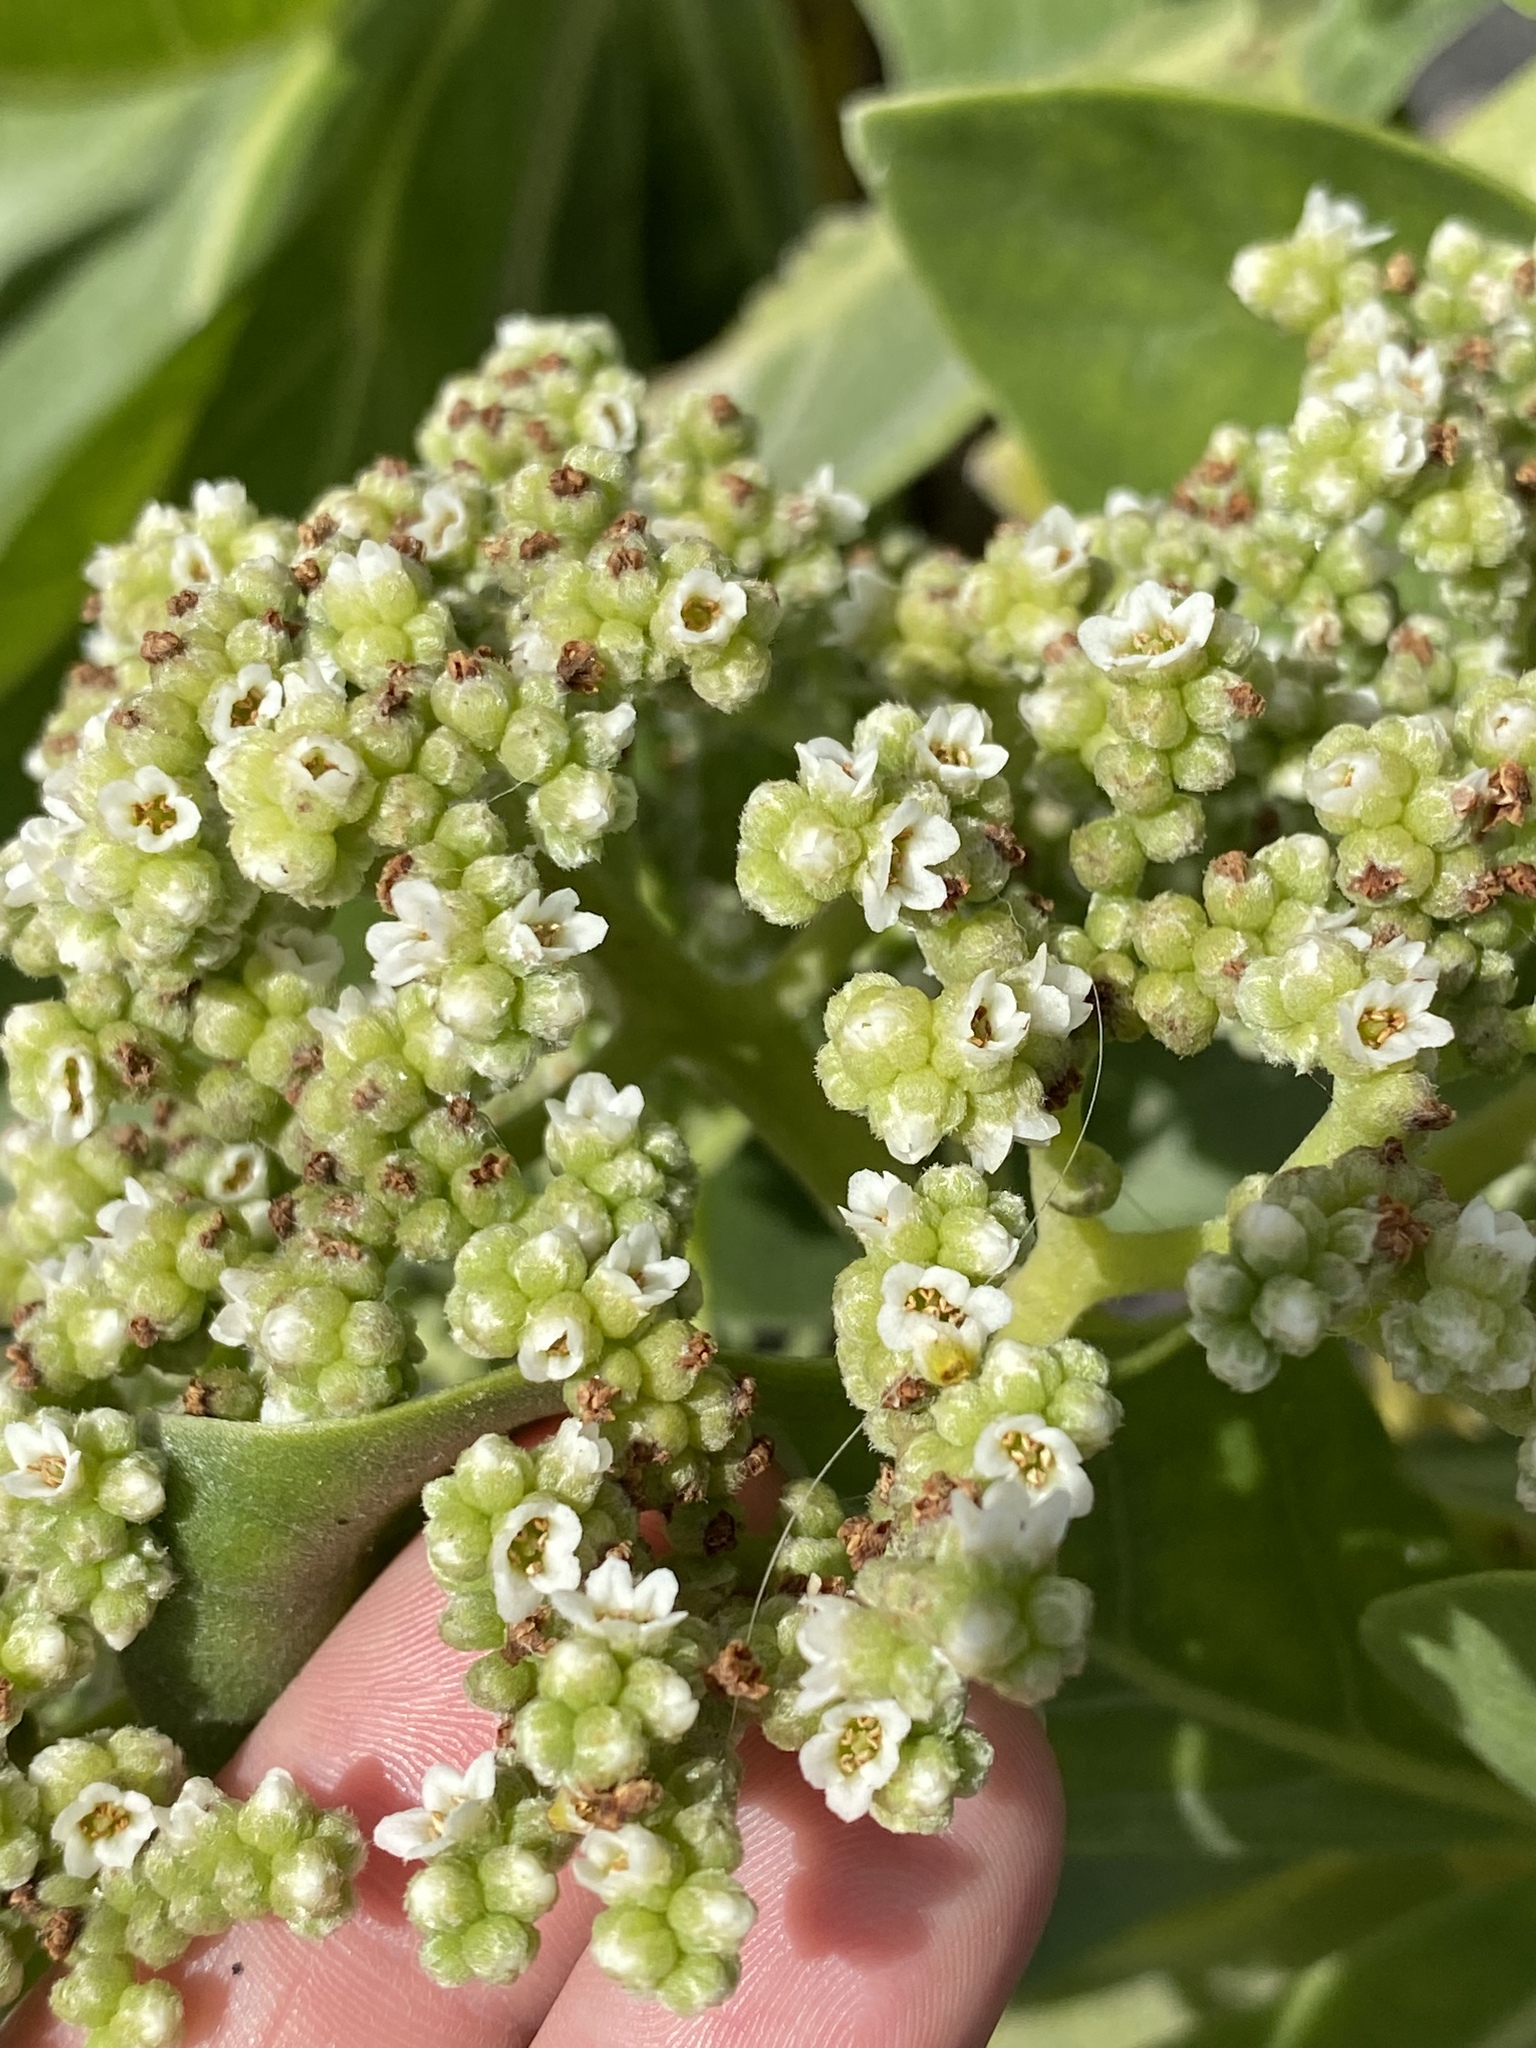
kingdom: Plantae
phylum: Tracheophyta
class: Magnoliopsida
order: Boraginales
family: Heliotropiaceae
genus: Heliotropium
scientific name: Heliotropium velutinum
